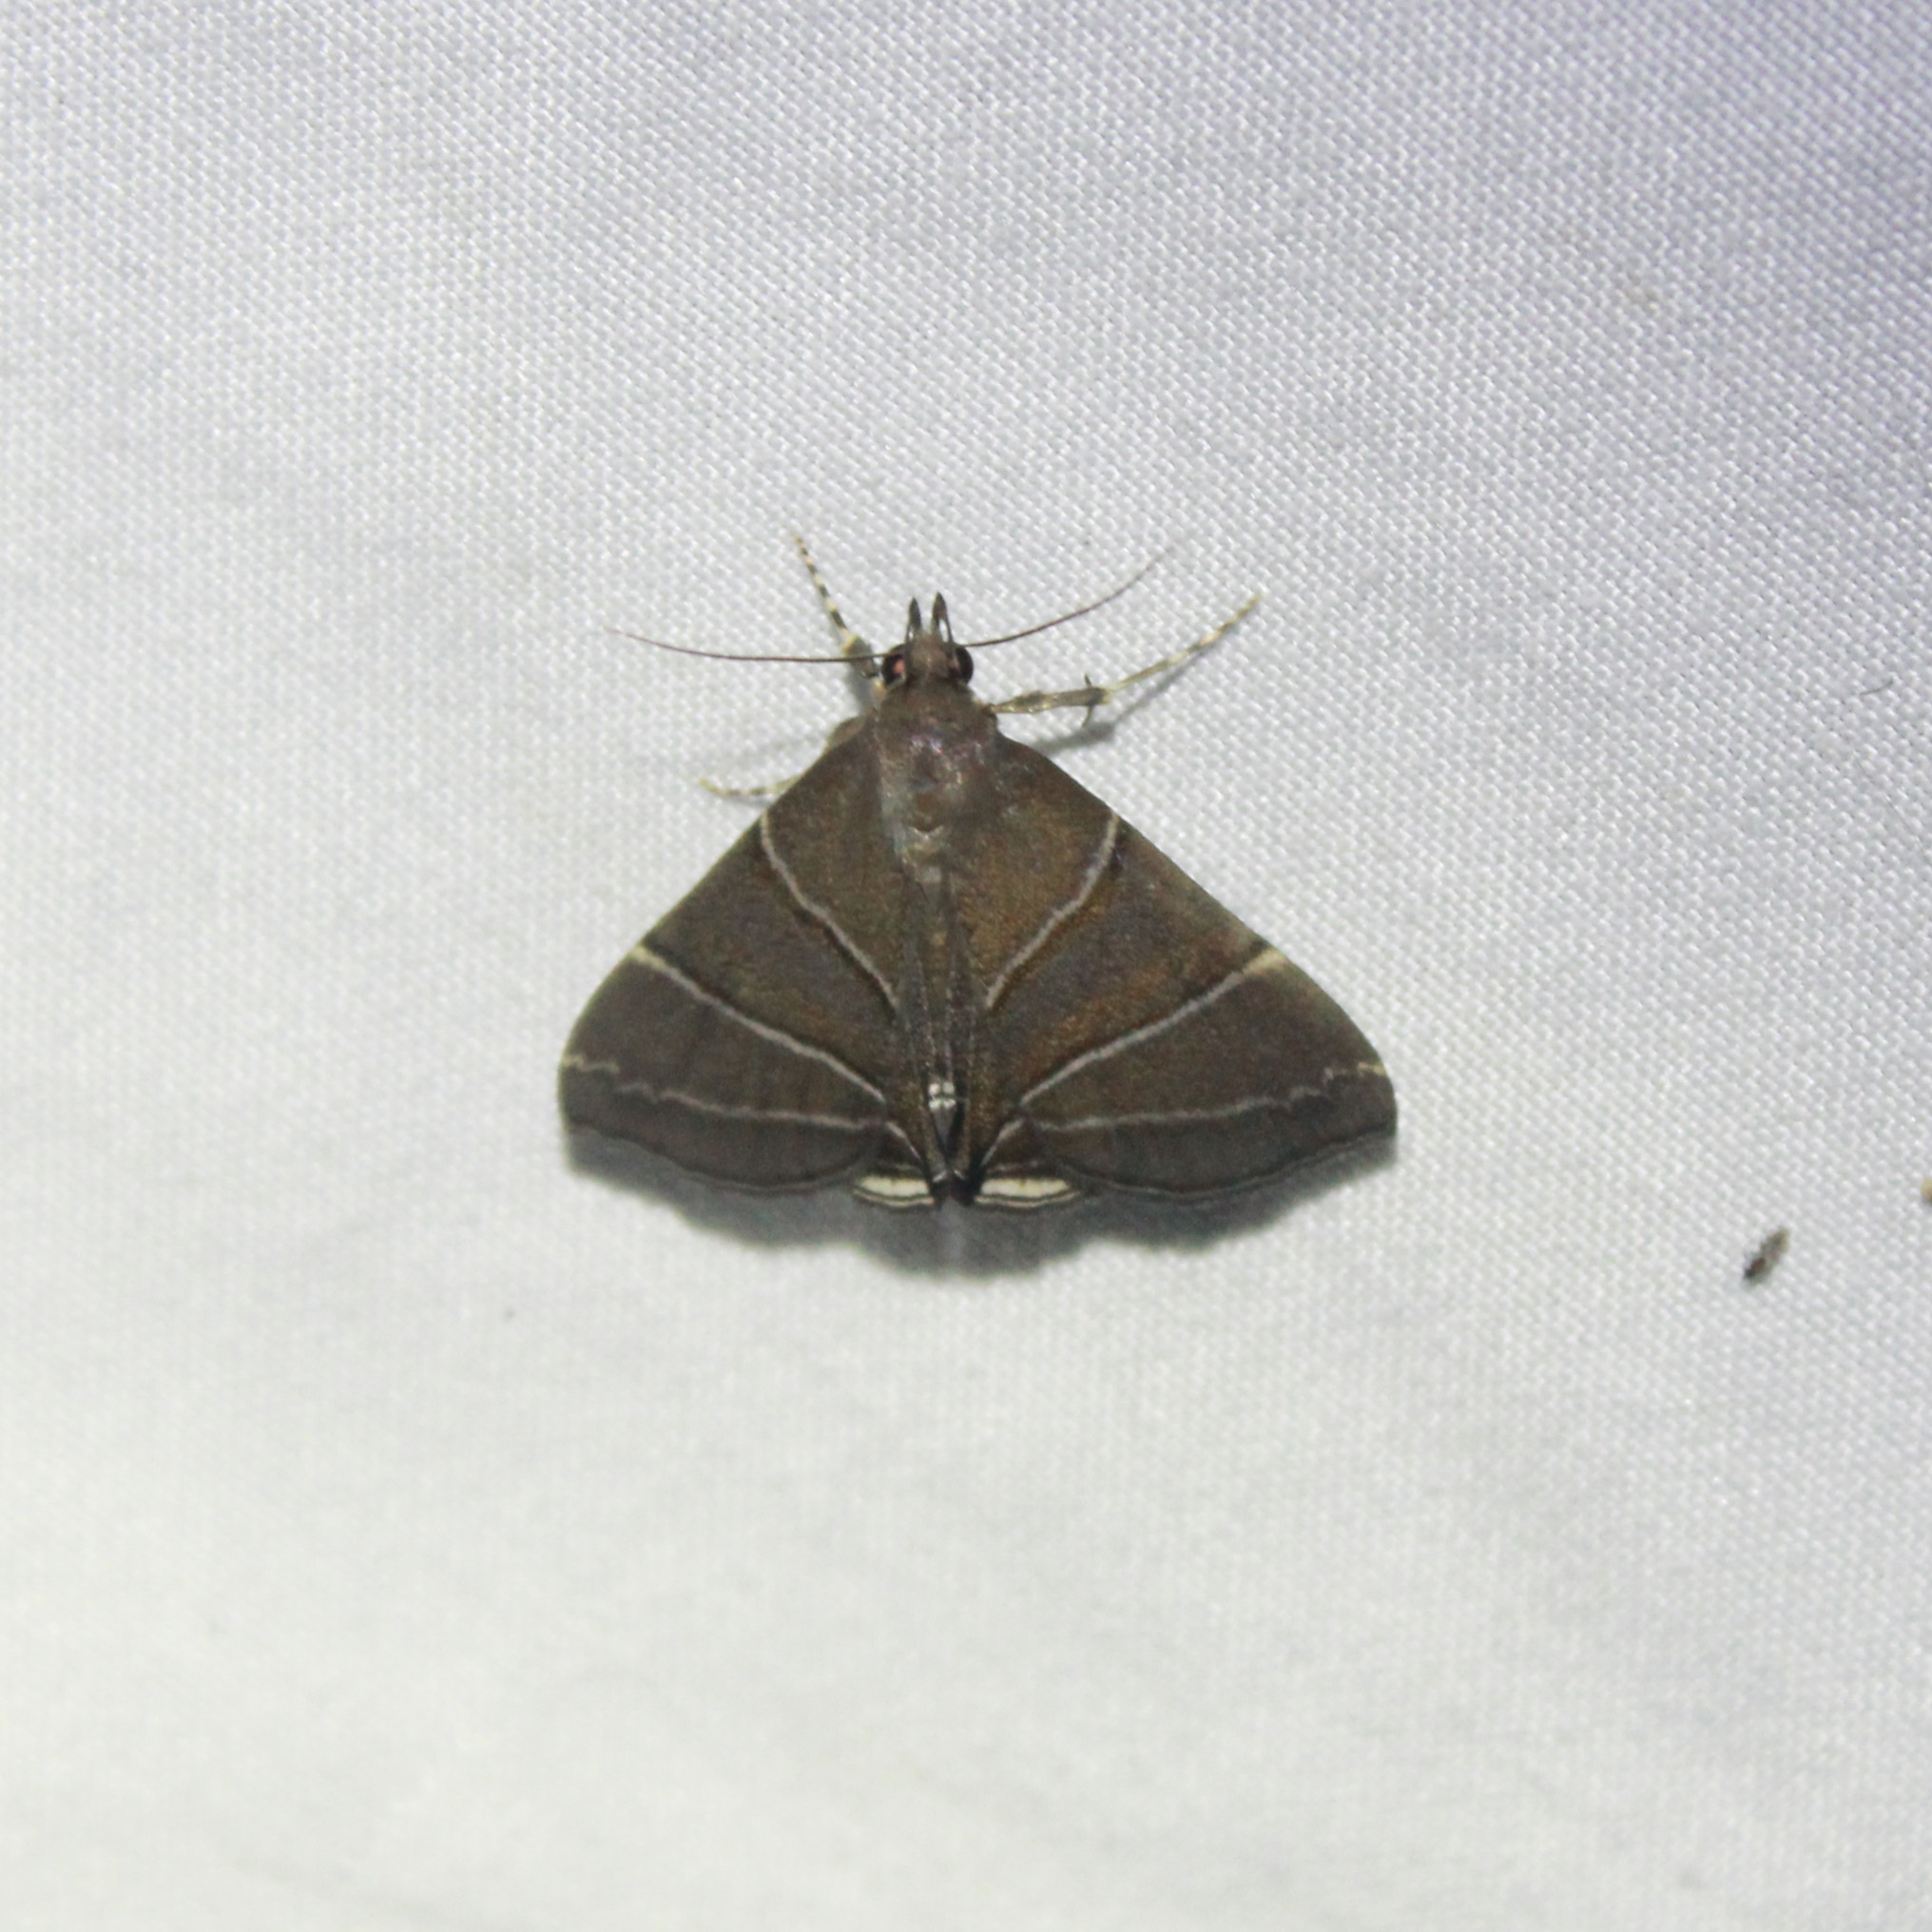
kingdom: Animalia
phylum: Arthropoda
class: Insecta
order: Lepidoptera
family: Erebidae
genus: Rejectaria
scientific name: Rejectaria theclalis
